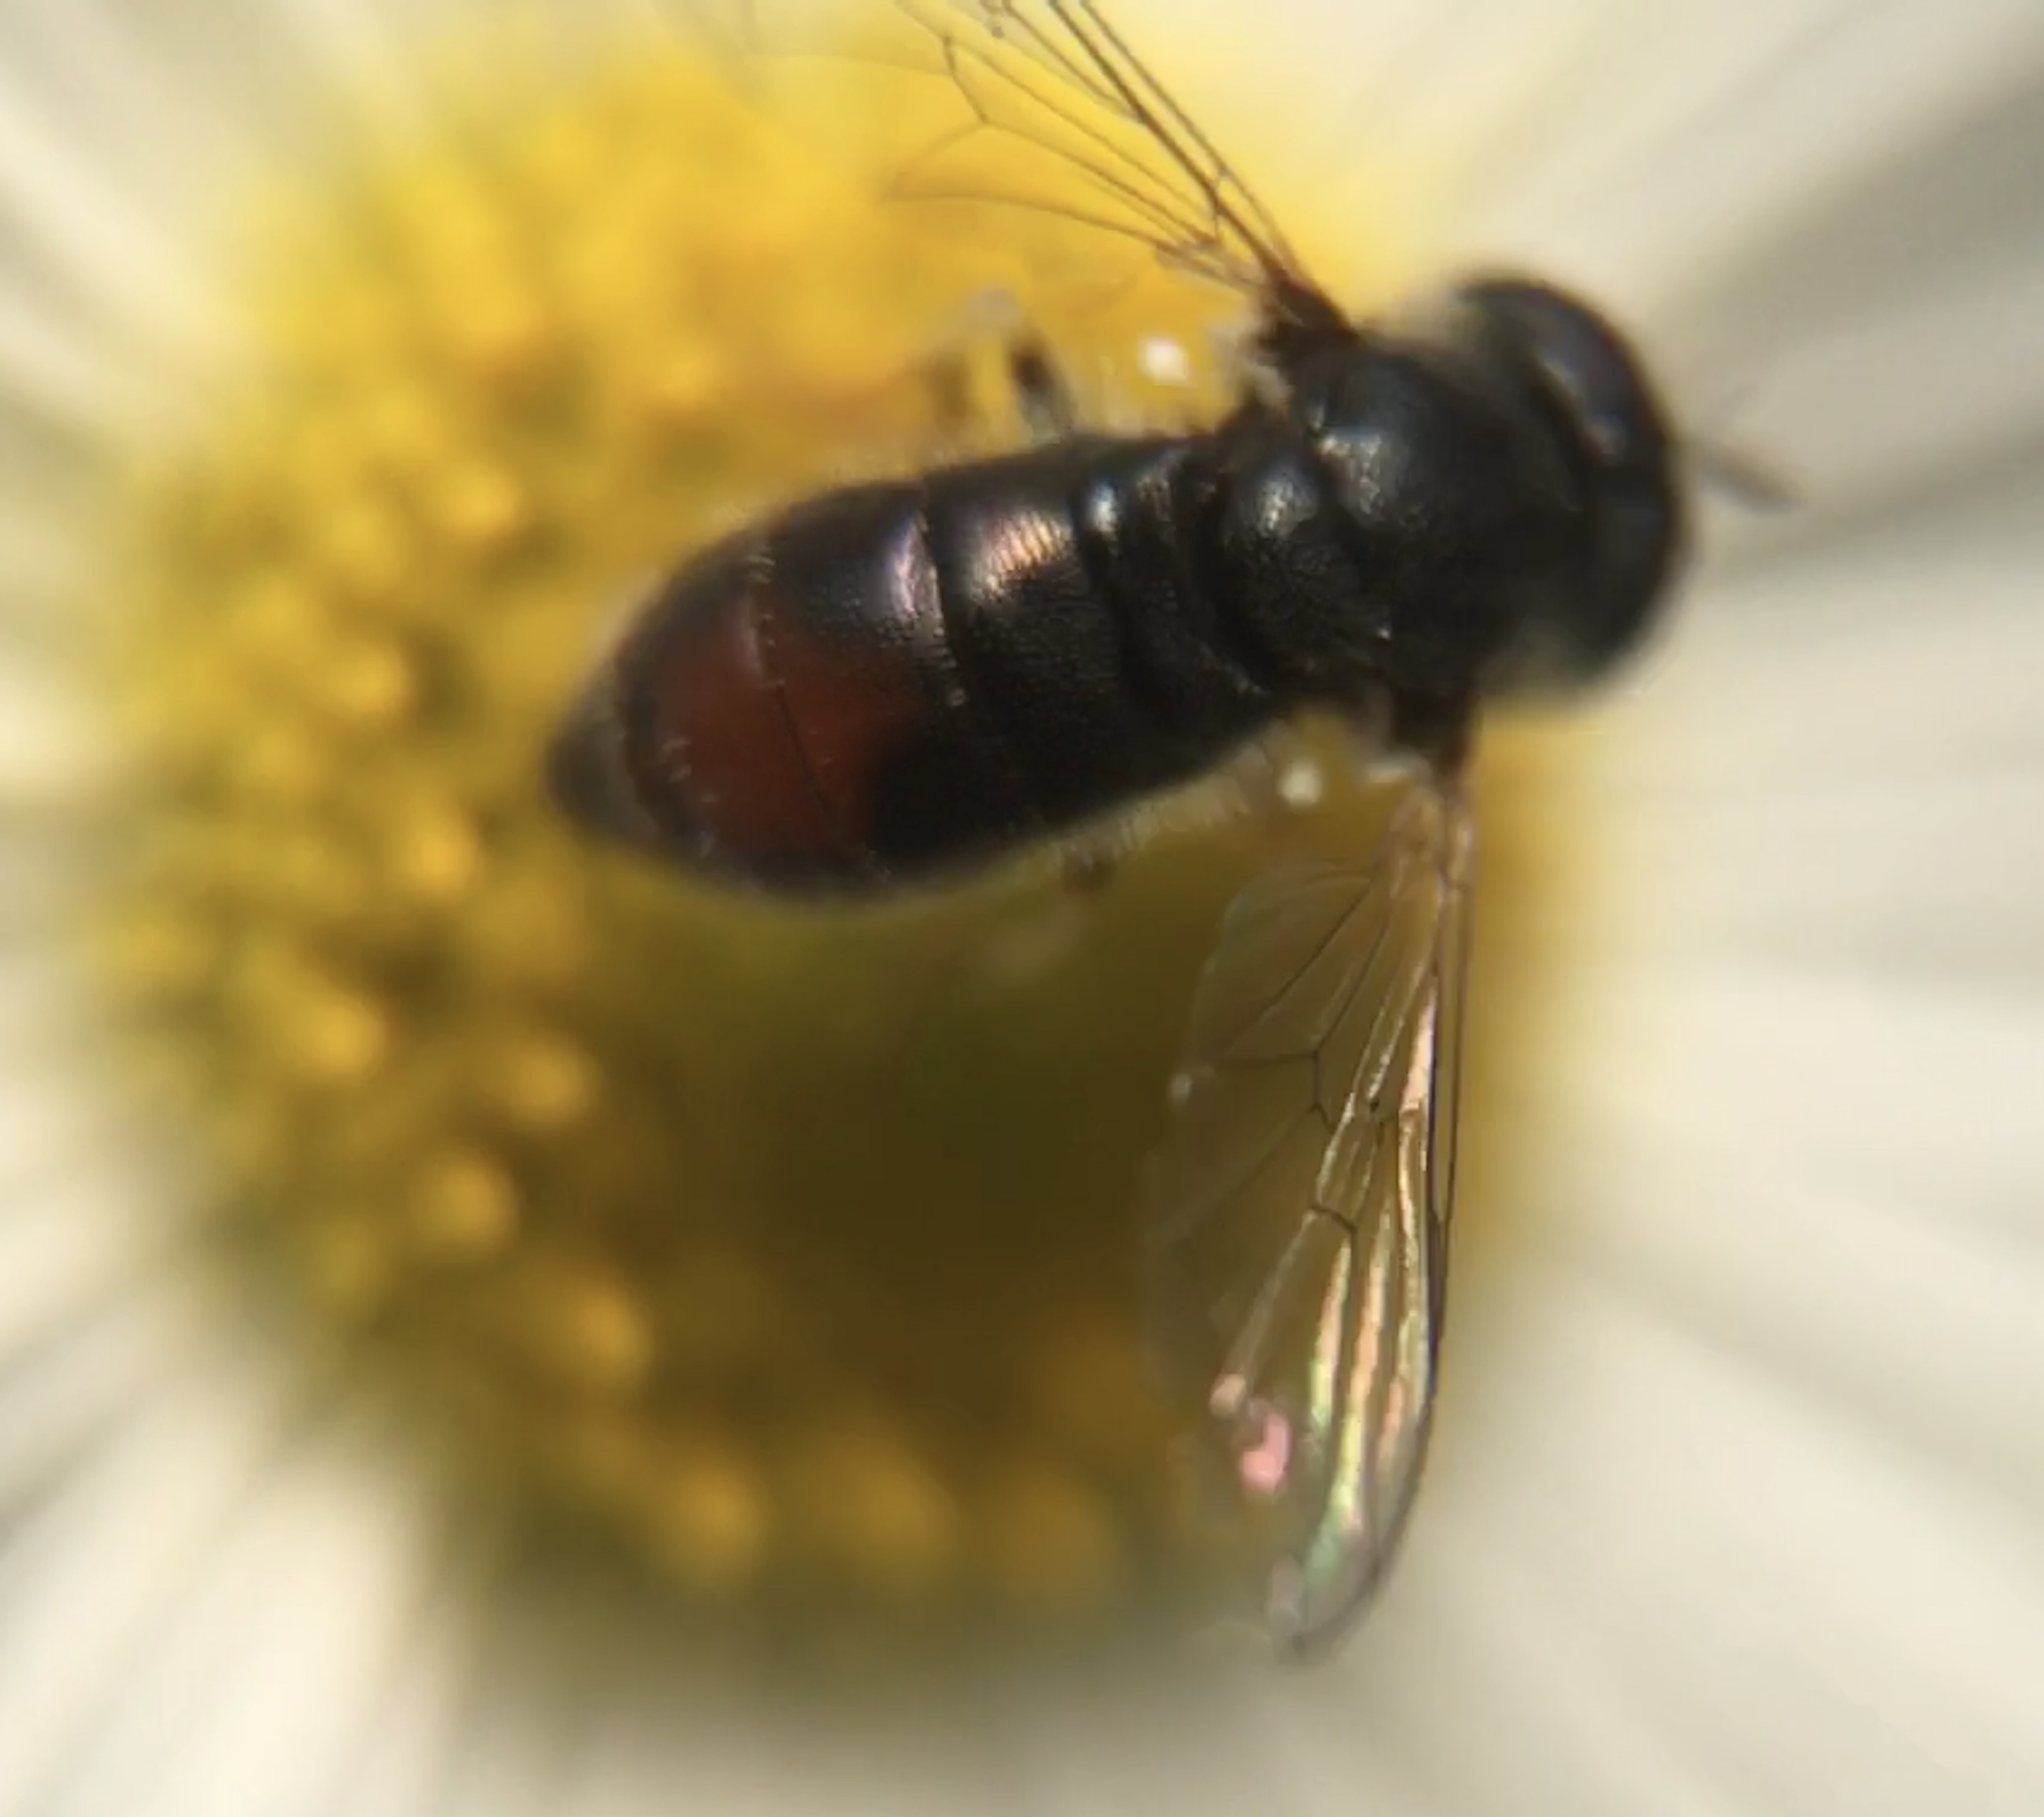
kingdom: Animalia
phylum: Arthropoda
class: Insecta
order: Diptera
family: Syrphidae
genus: Paragus
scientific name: Paragus haemorrhous
